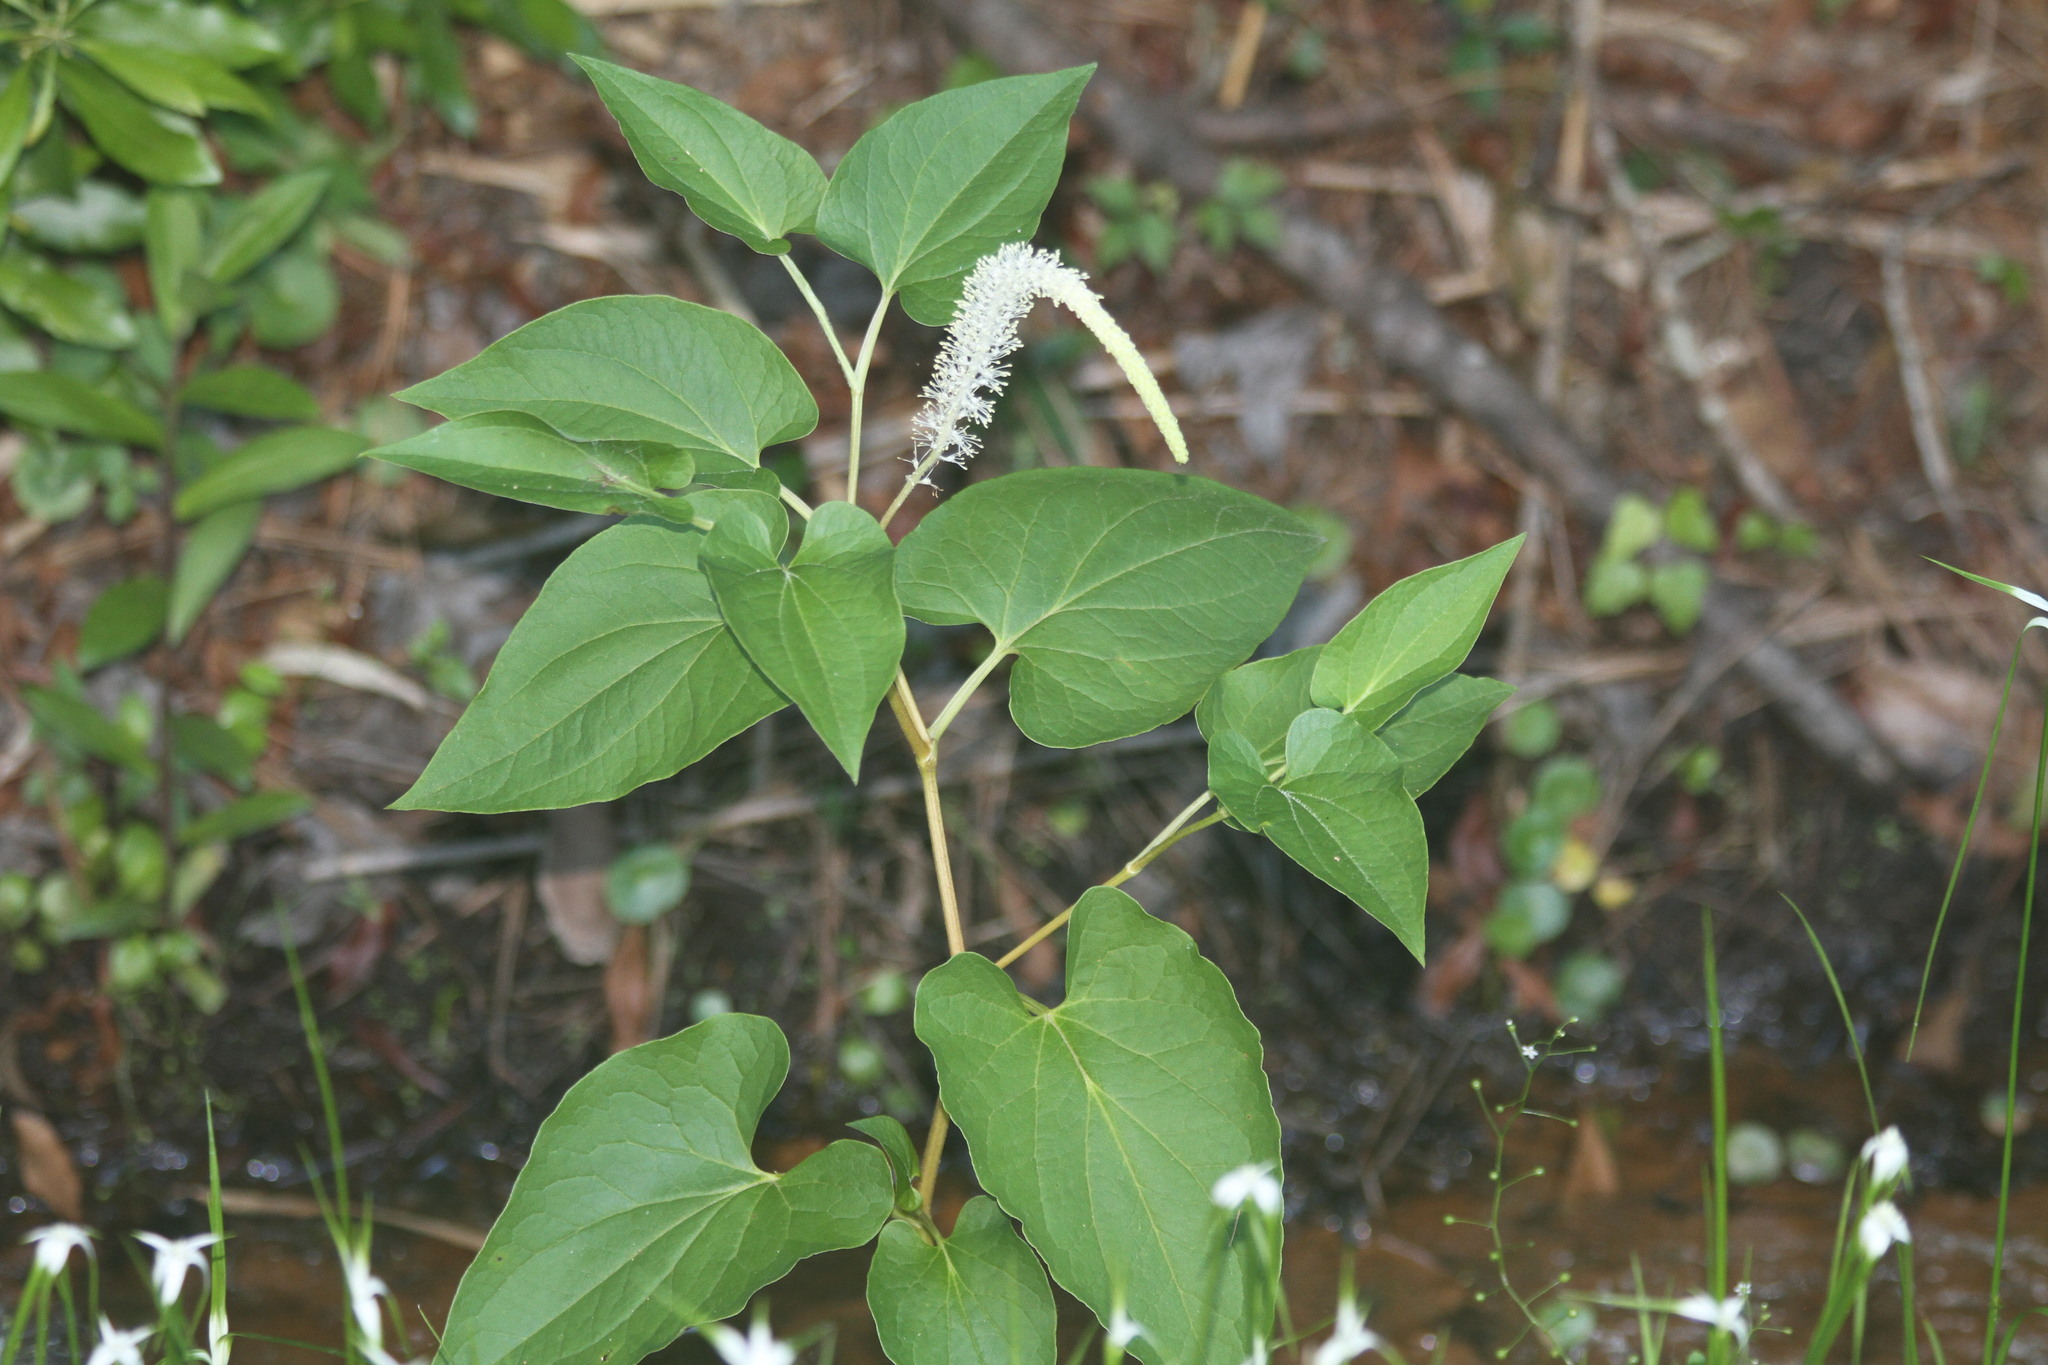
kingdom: Plantae
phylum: Tracheophyta
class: Magnoliopsida
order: Piperales
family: Saururaceae
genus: Saururus
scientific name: Saururus cernuus
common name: Lizard's-tail
